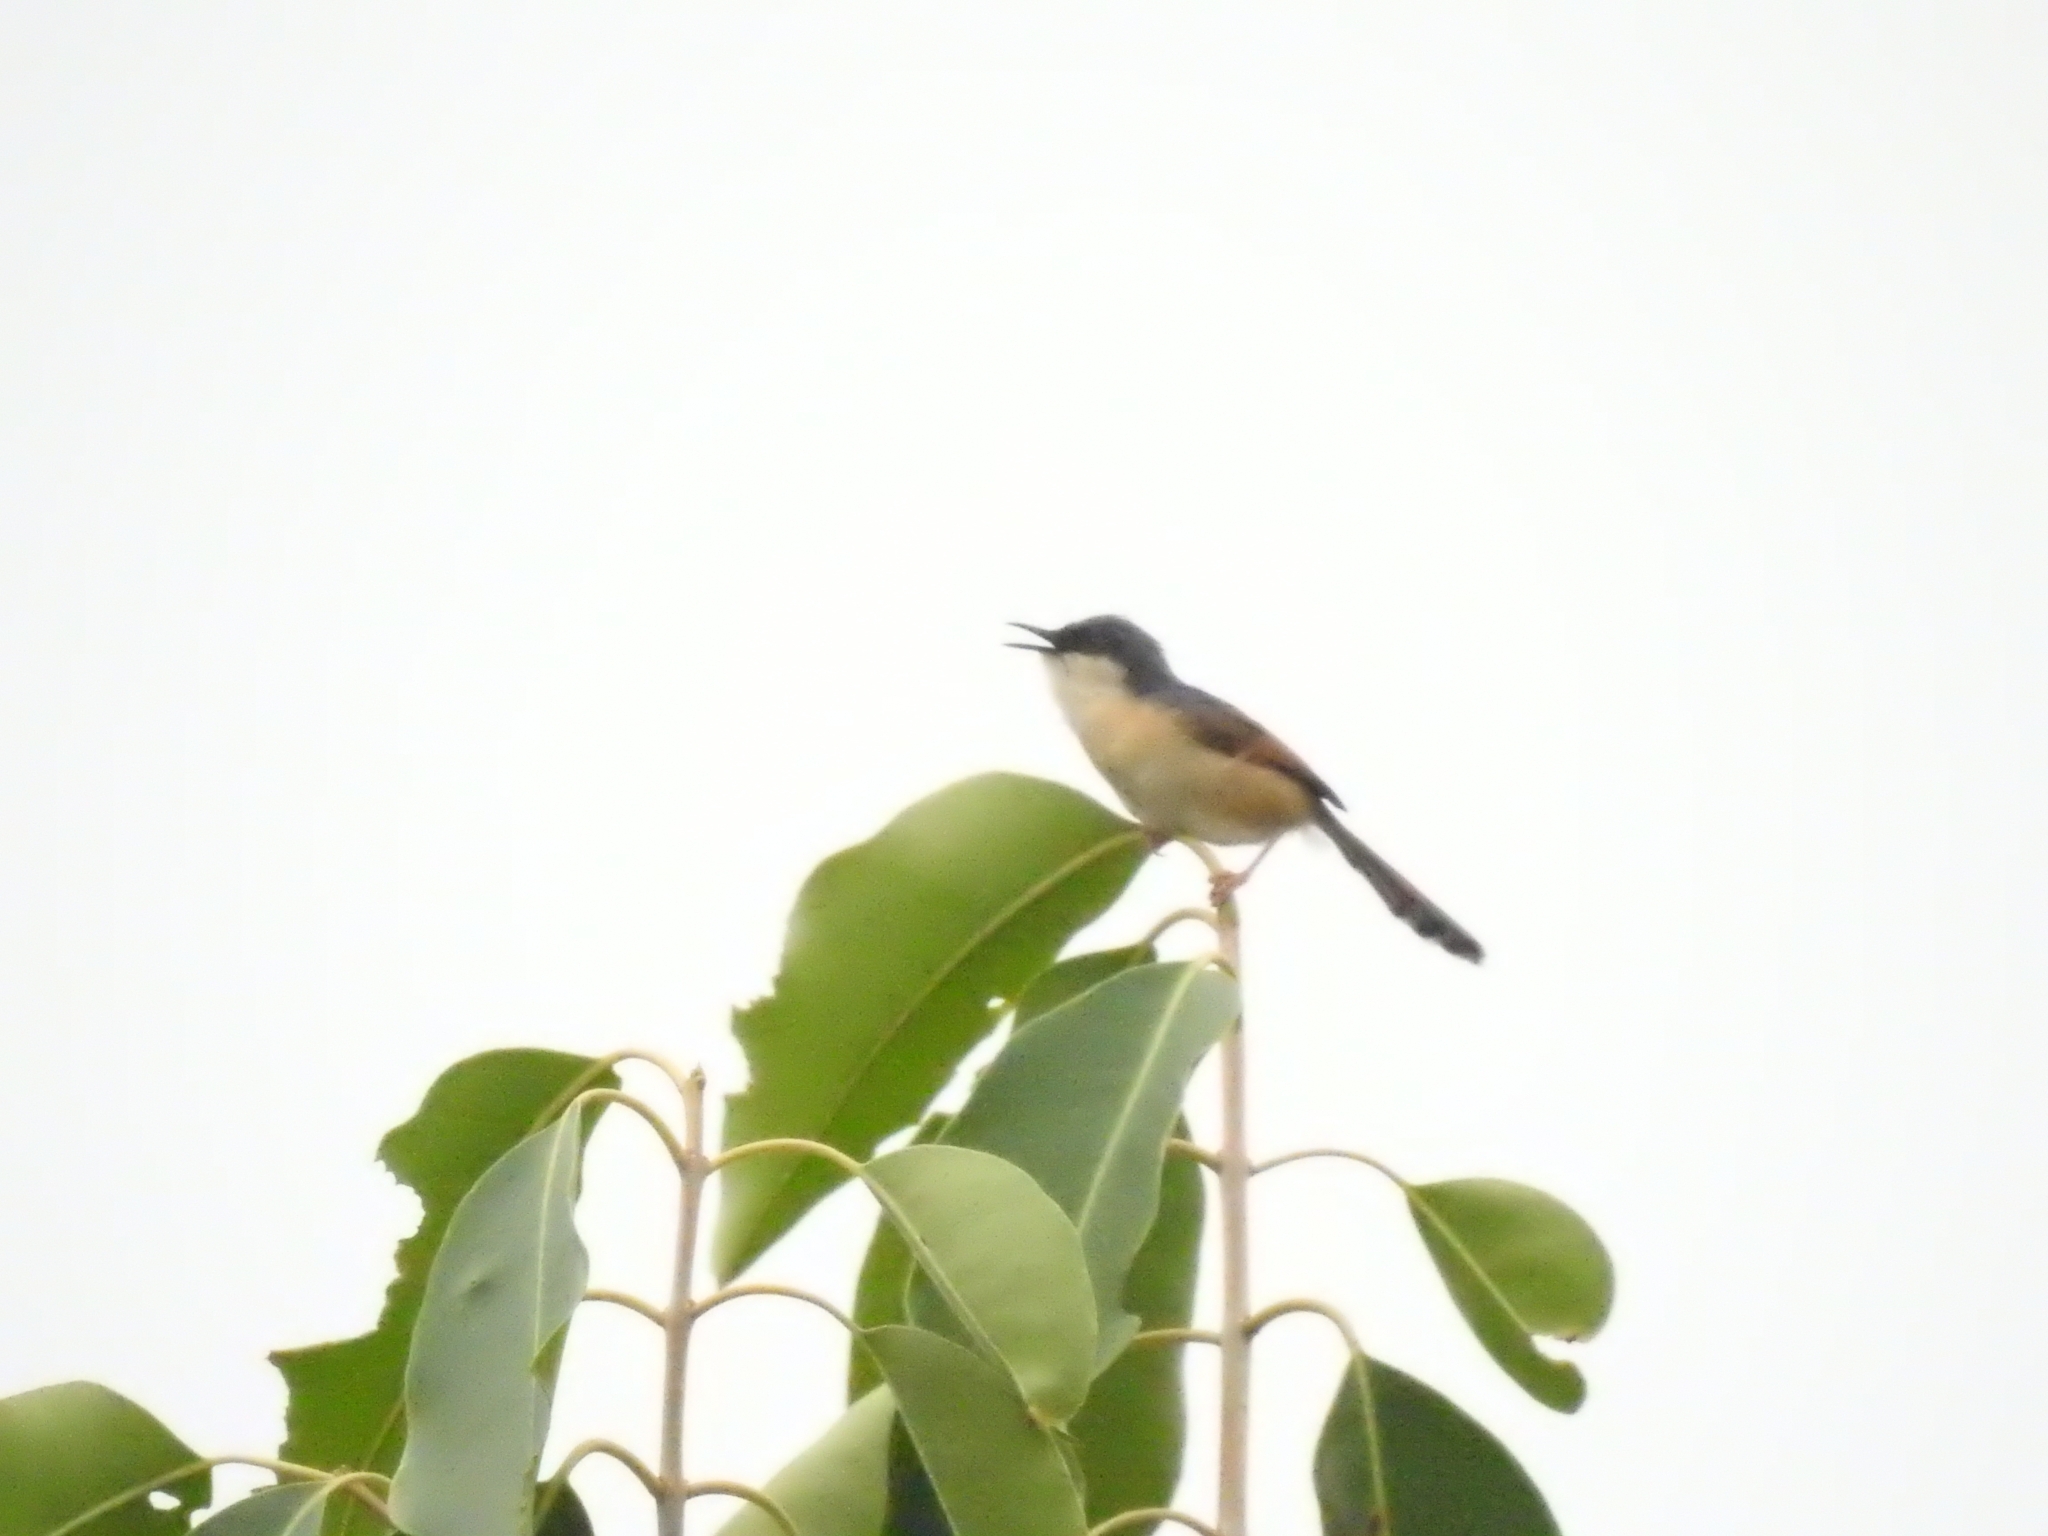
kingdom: Animalia
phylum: Chordata
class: Aves
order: Passeriformes
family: Cisticolidae
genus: Prinia
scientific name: Prinia socialis
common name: Ashy prinia
